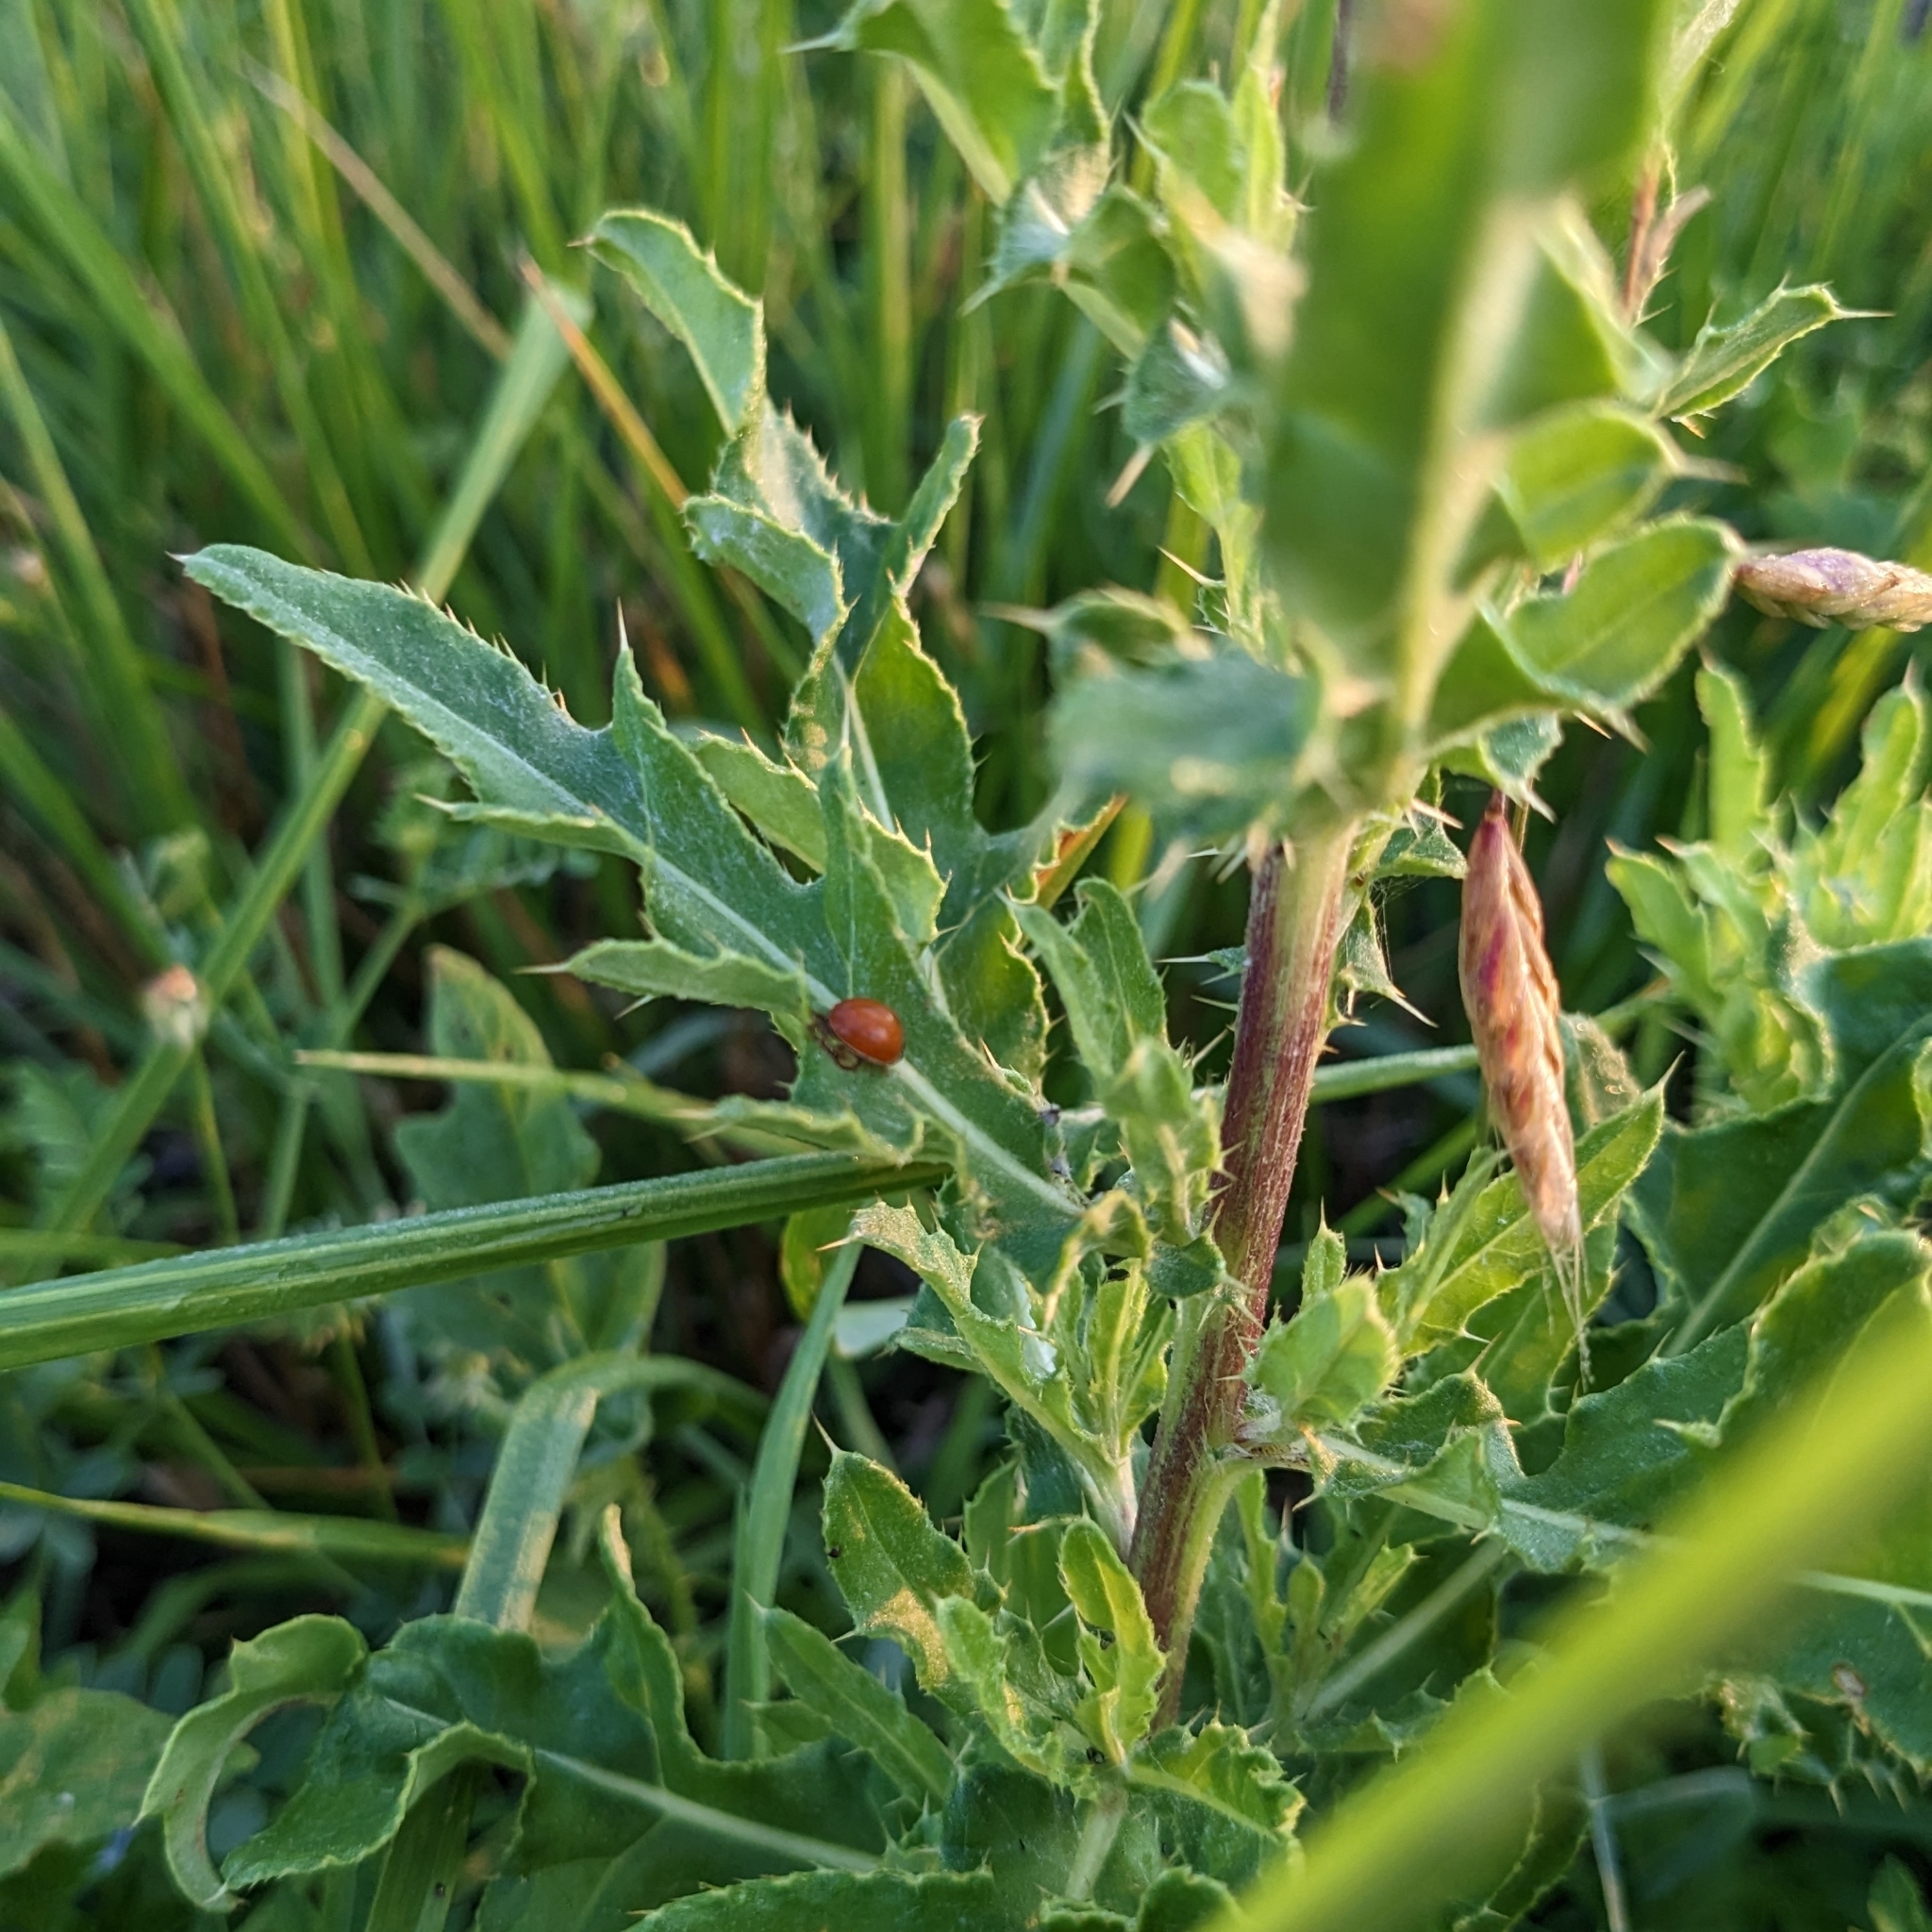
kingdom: Animalia
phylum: Arthropoda
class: Insecta
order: Coleoptera
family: Coccinellidae
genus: Cycloneda
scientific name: Cycloneda munda
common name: Polished lady beetle
